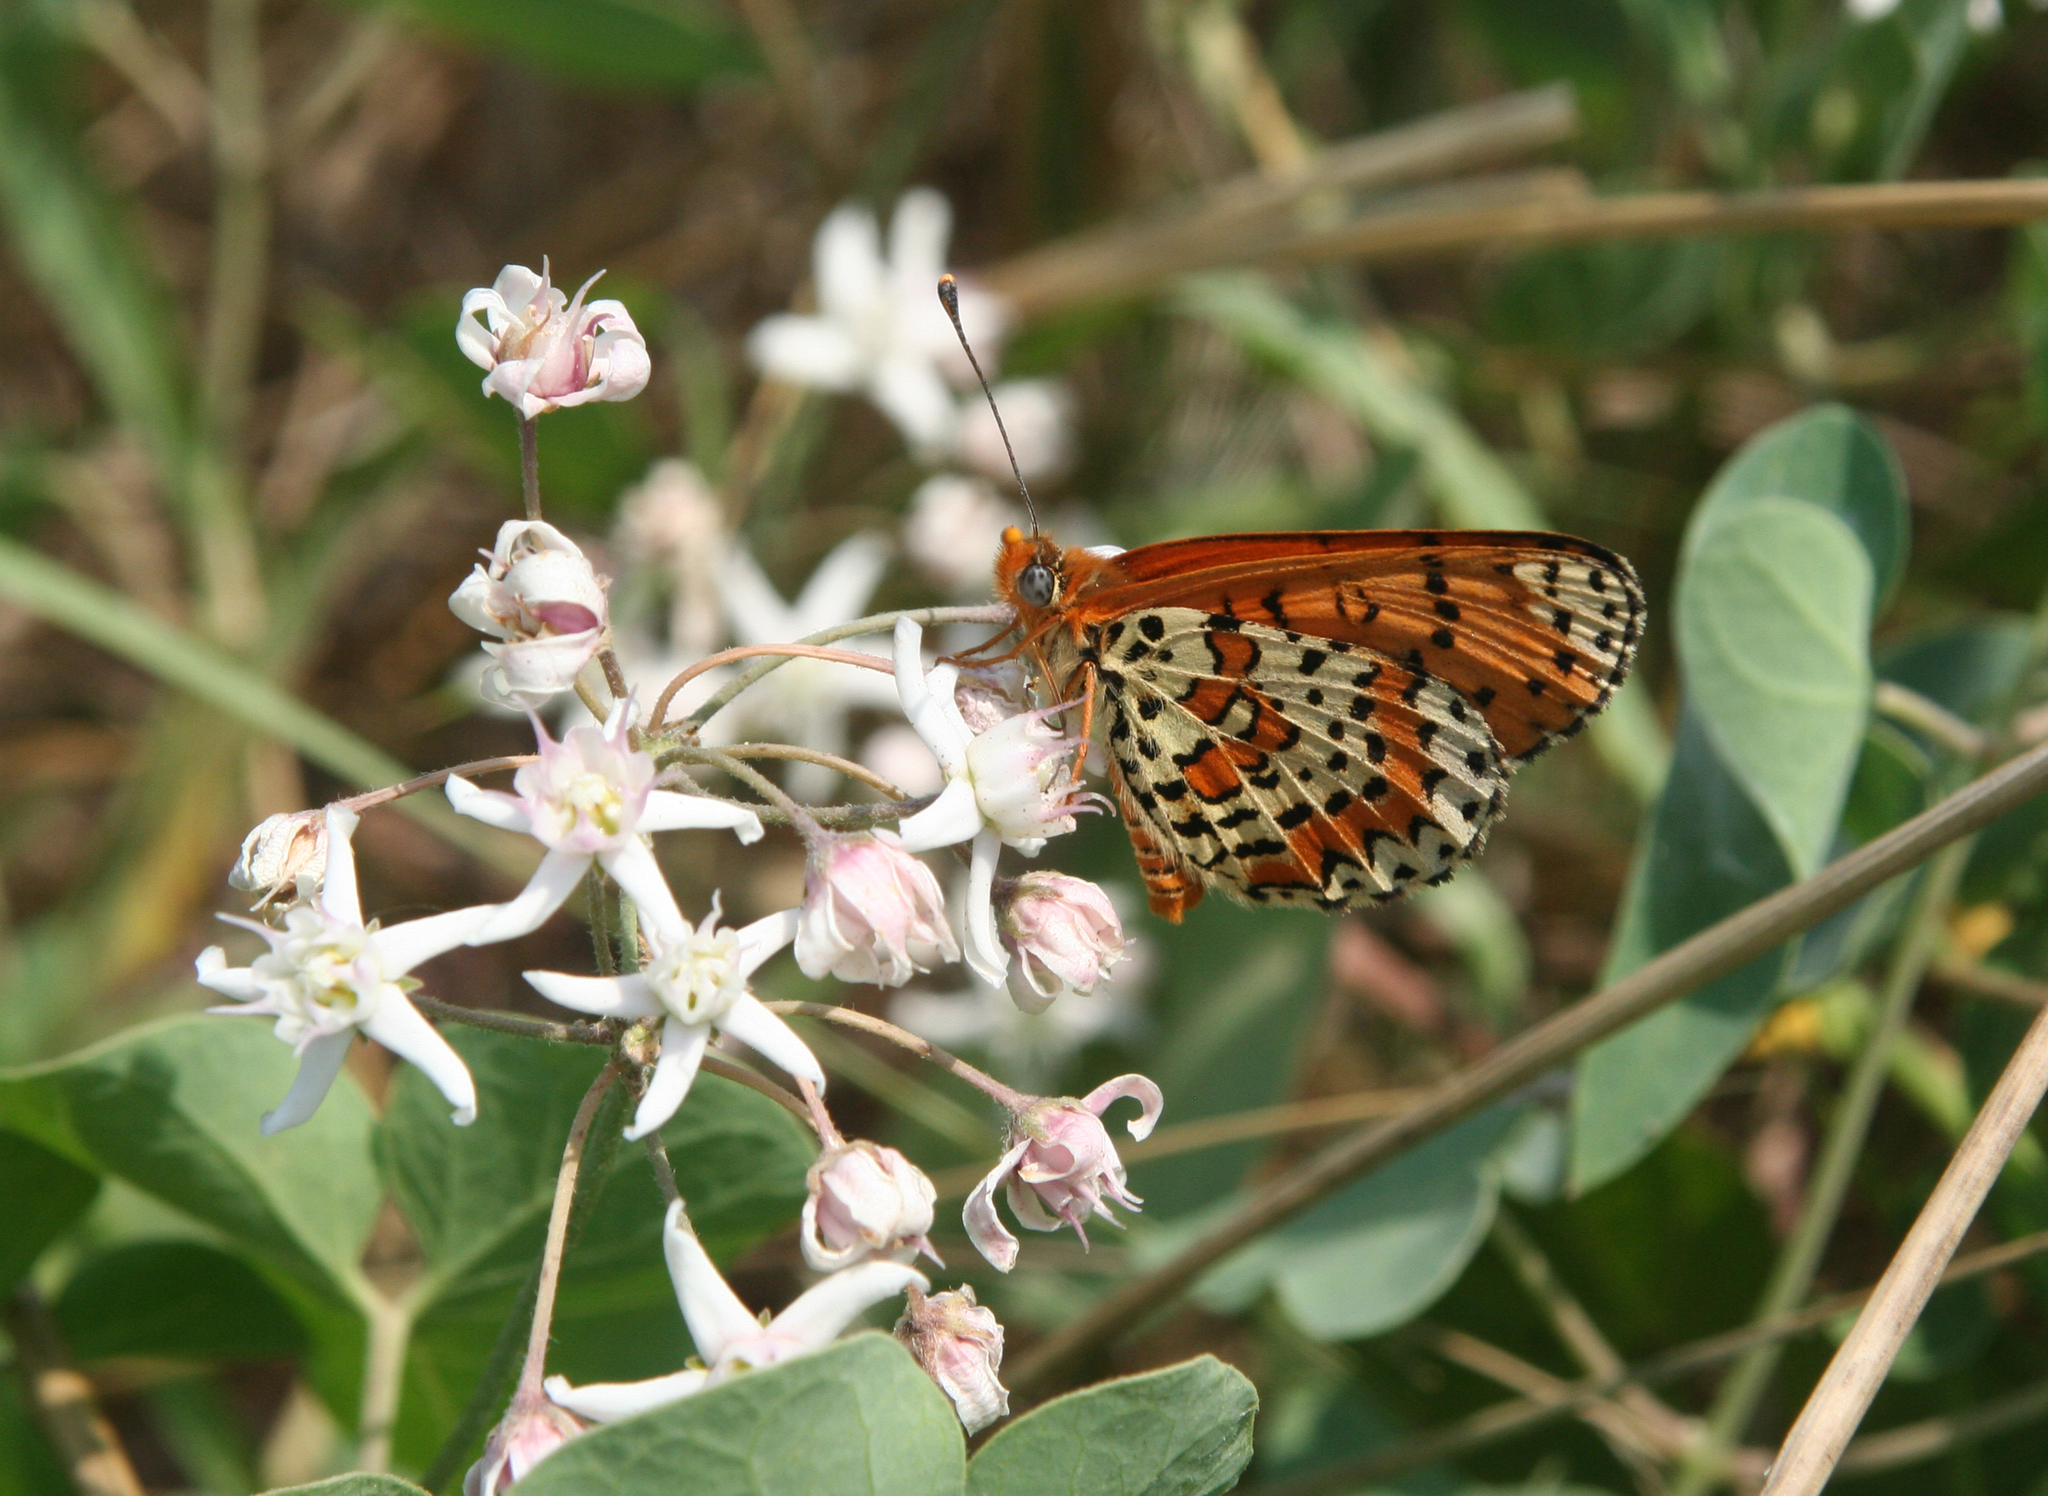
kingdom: Plantae
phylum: Tracheophyta
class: Magnoliopsida
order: Gentianales
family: Apocynaceae
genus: Cynanchum
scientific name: Cynanchum acutum
